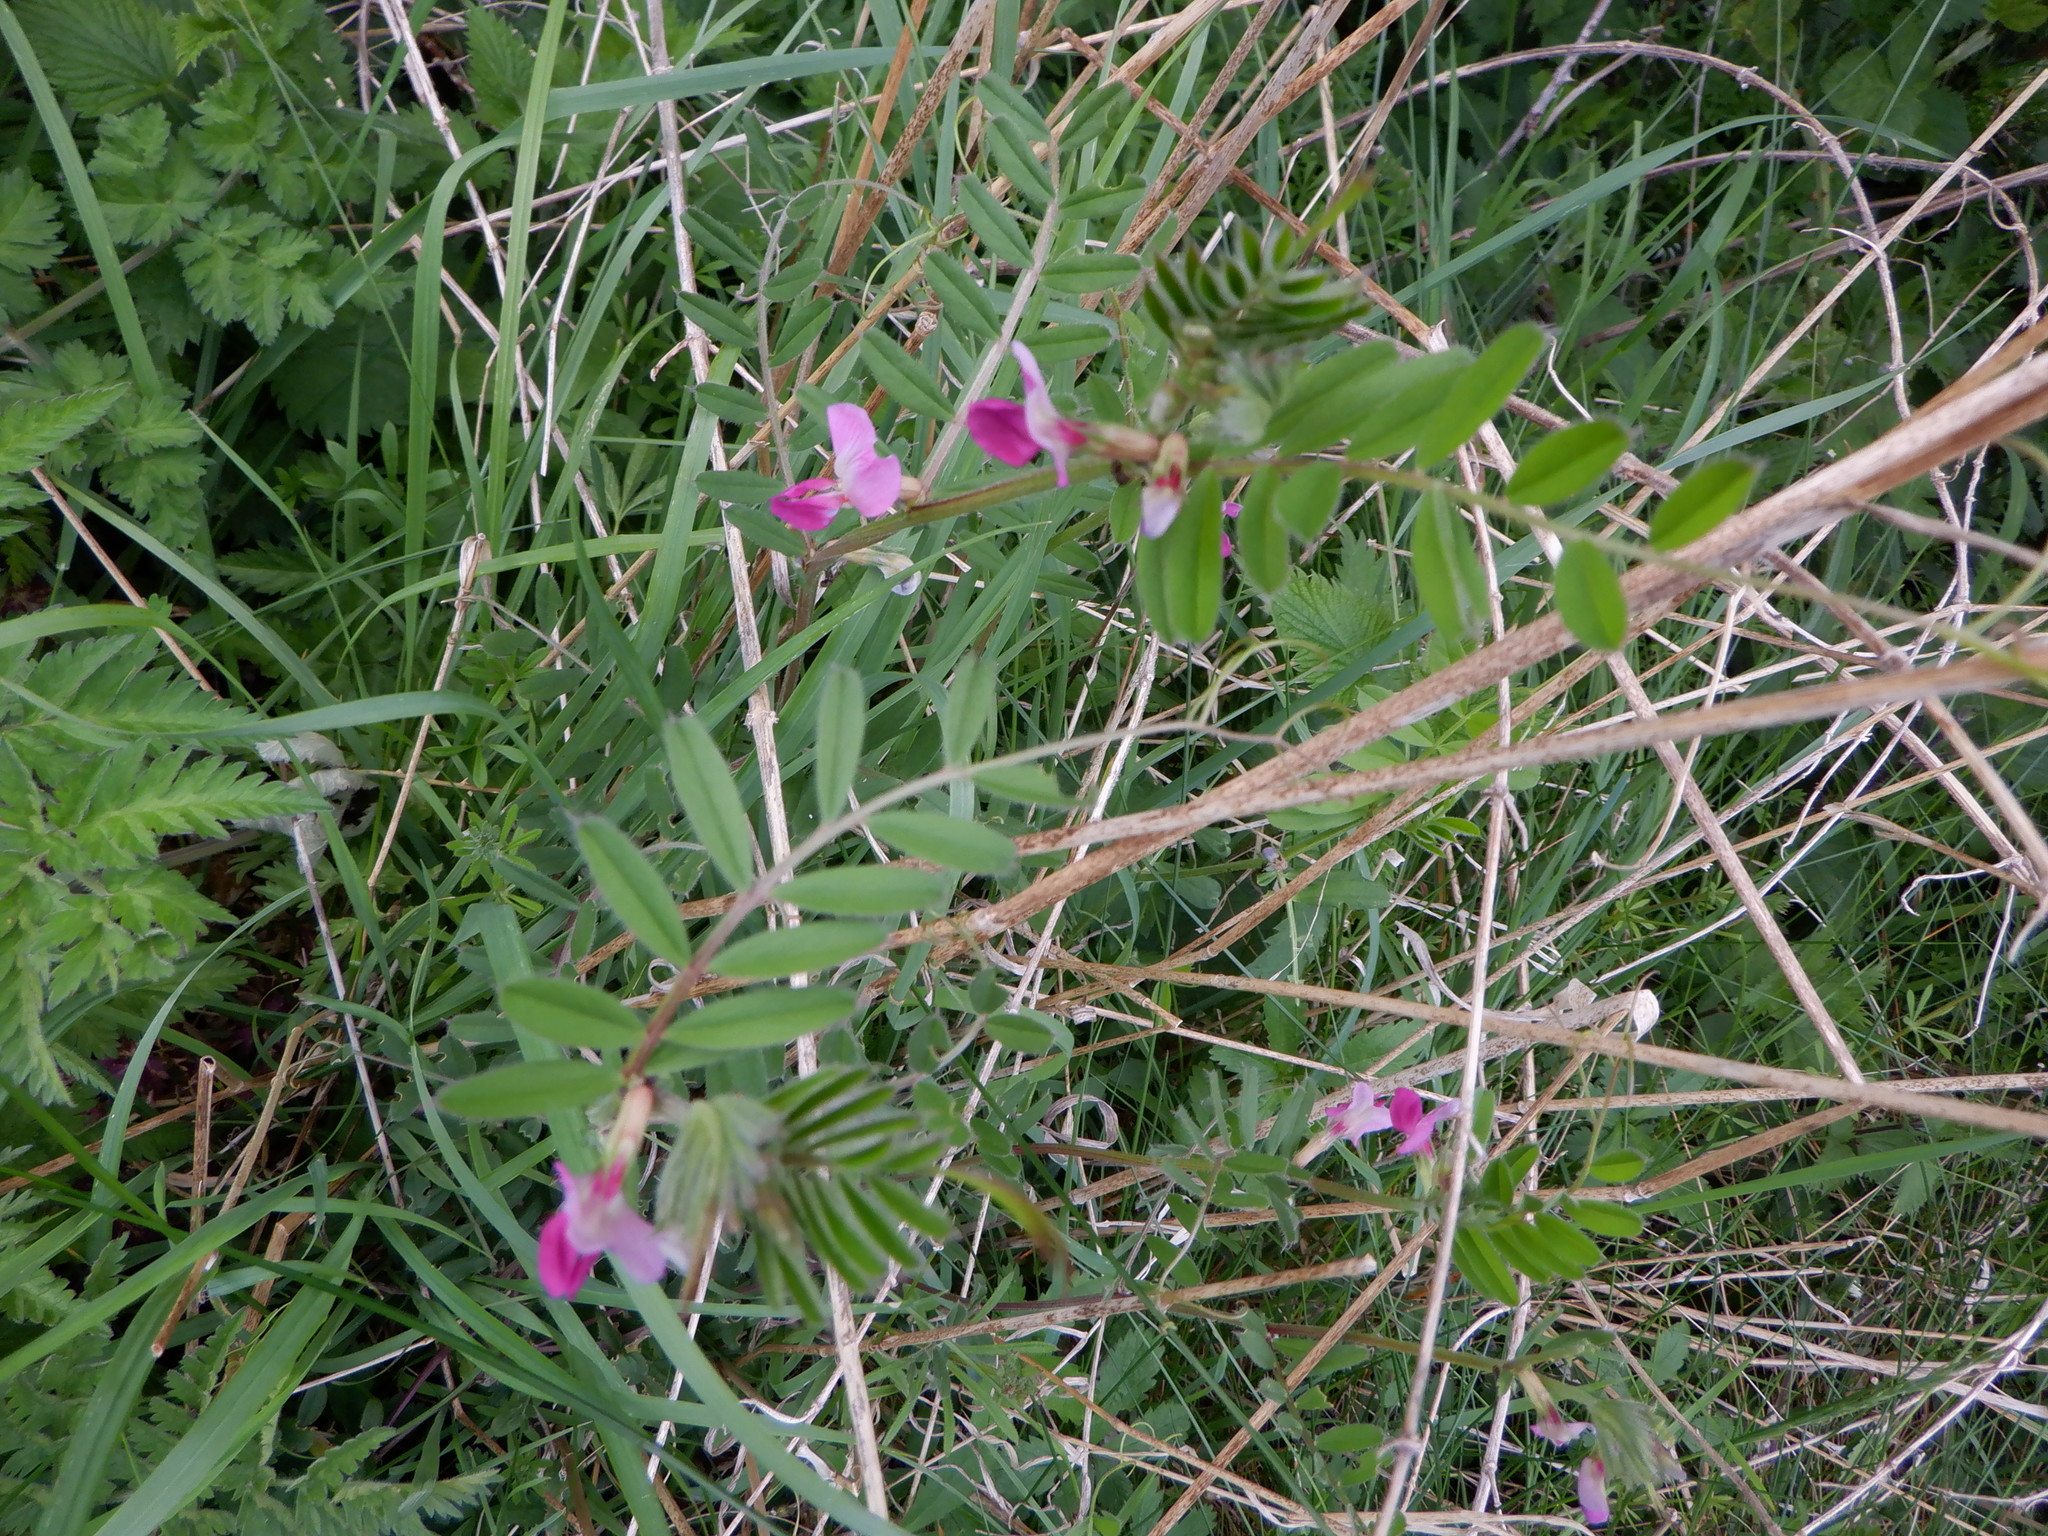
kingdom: Plantae
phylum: Tracheophyta
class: Magnoliopsida
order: Fabales
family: Fabaceae
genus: Vicia
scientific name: Vicia sativa
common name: Garden vetch
